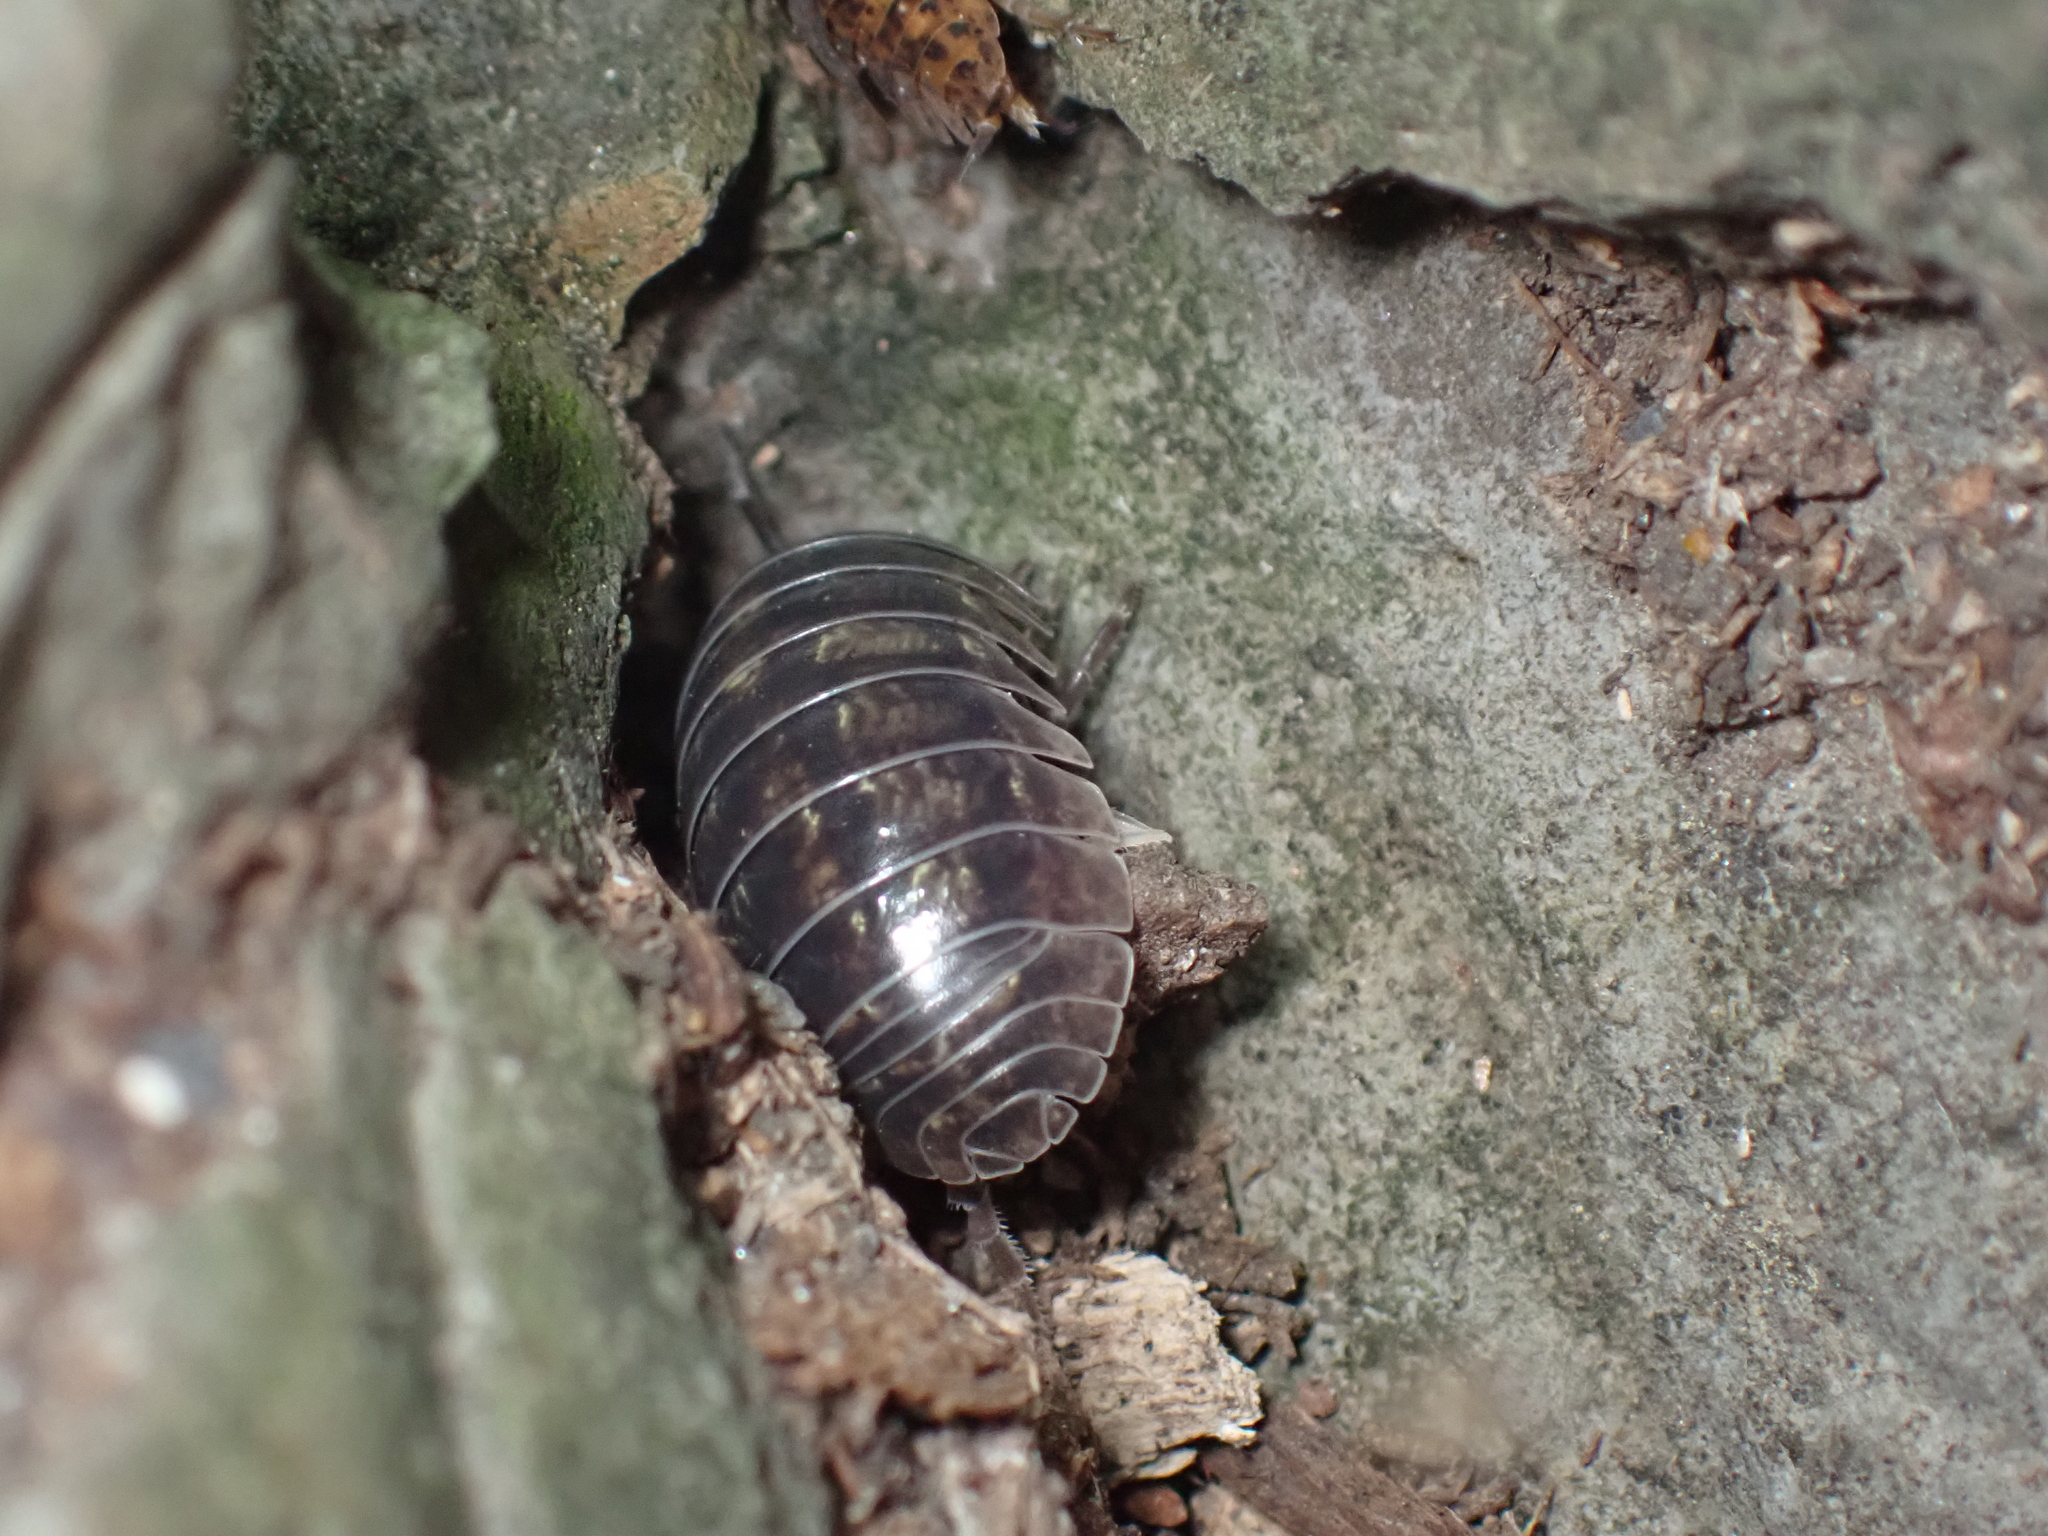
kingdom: Animalia
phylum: Arthropoda
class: Malacostraca
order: Isopoda
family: Armadillidiidae
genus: Armadillidium
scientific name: Armadillidium vulgare
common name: Common pill woodlouse
